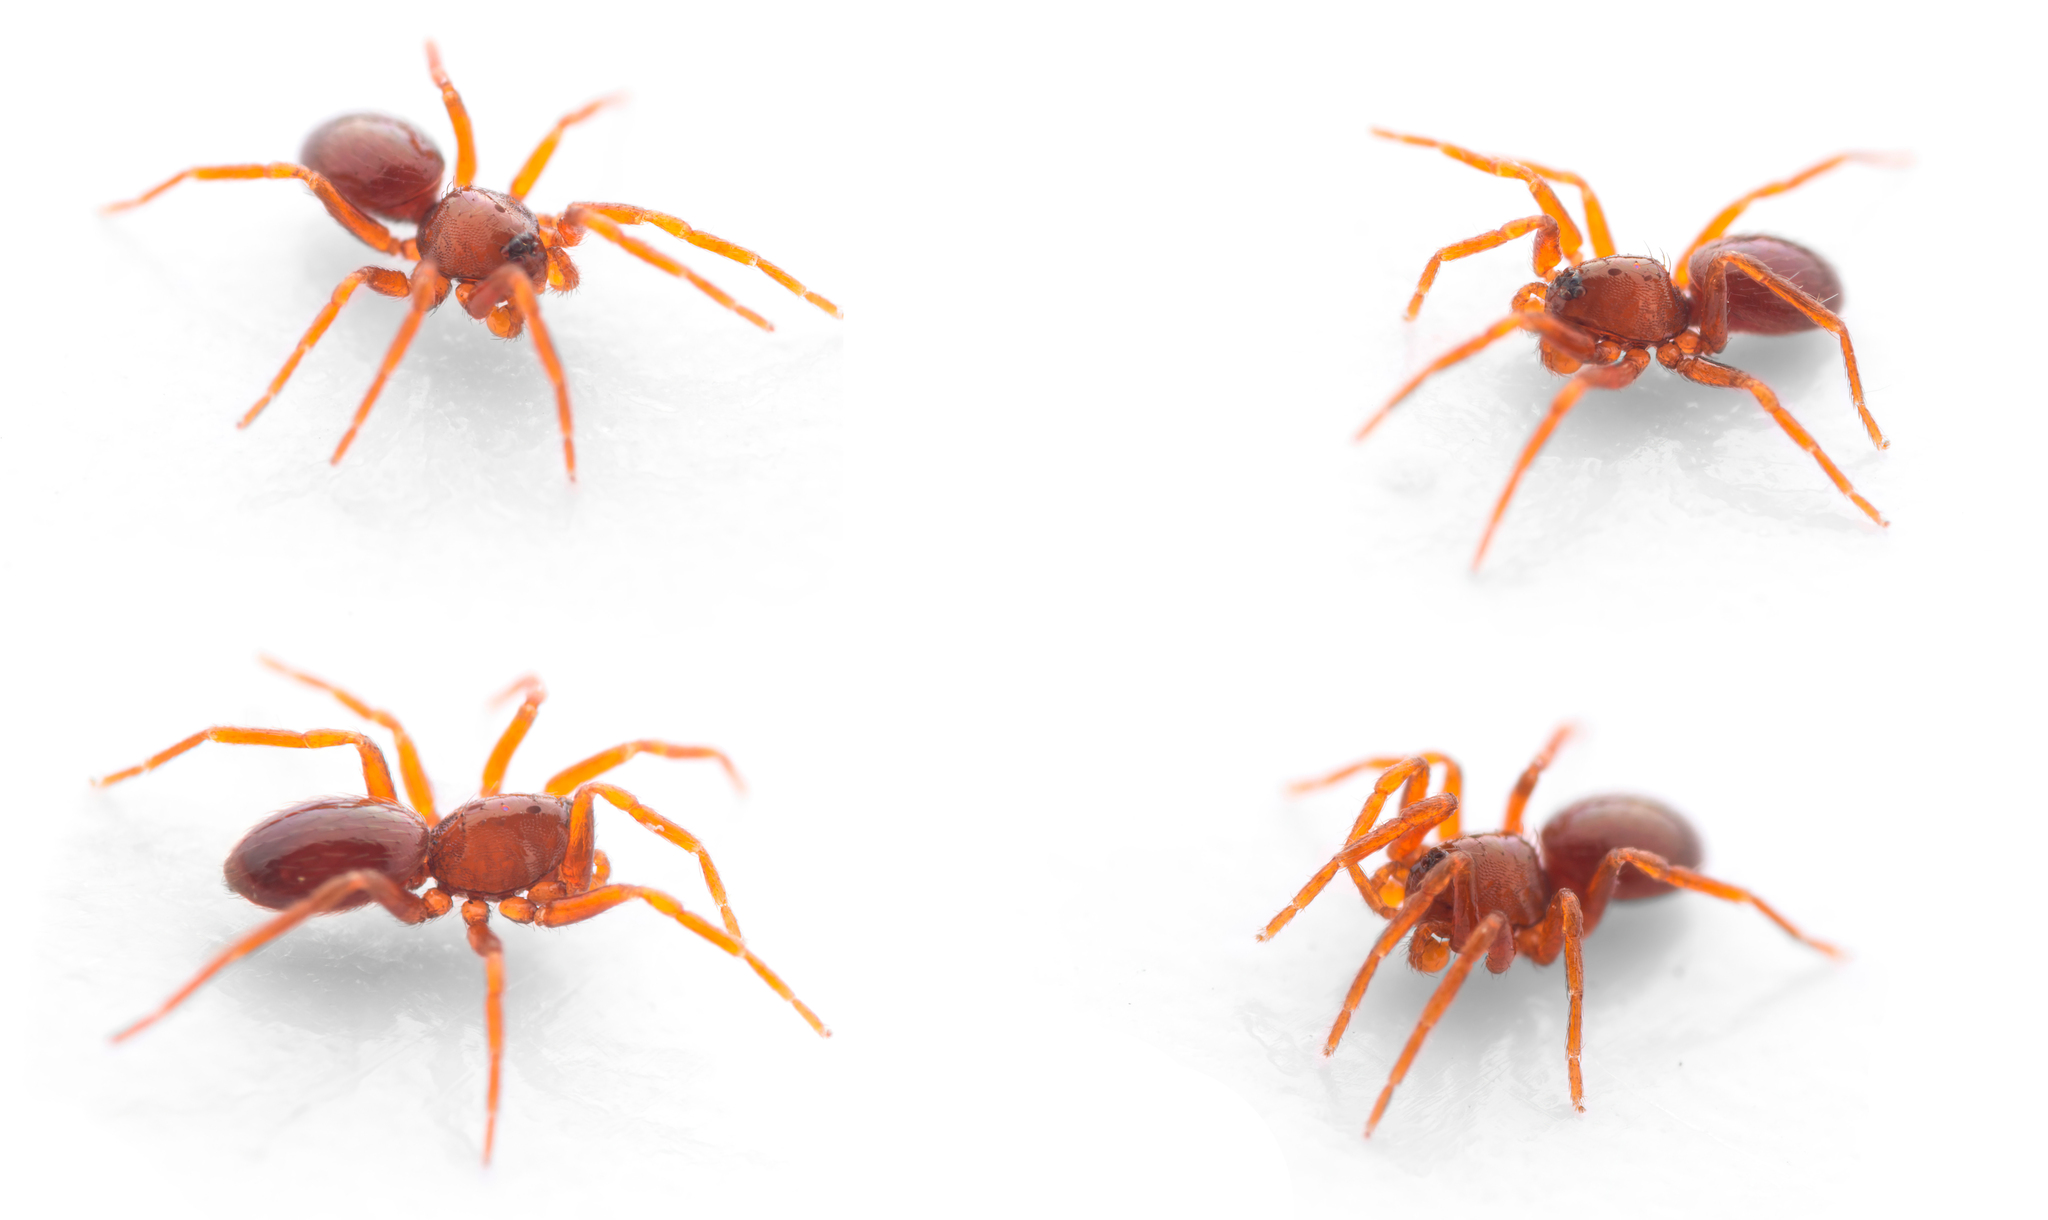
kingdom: Animalia
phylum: Arthropoda
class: Arachnida
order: Araneae
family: Oonopidae
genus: Silhouettella
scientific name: Silhouettella loricatula
